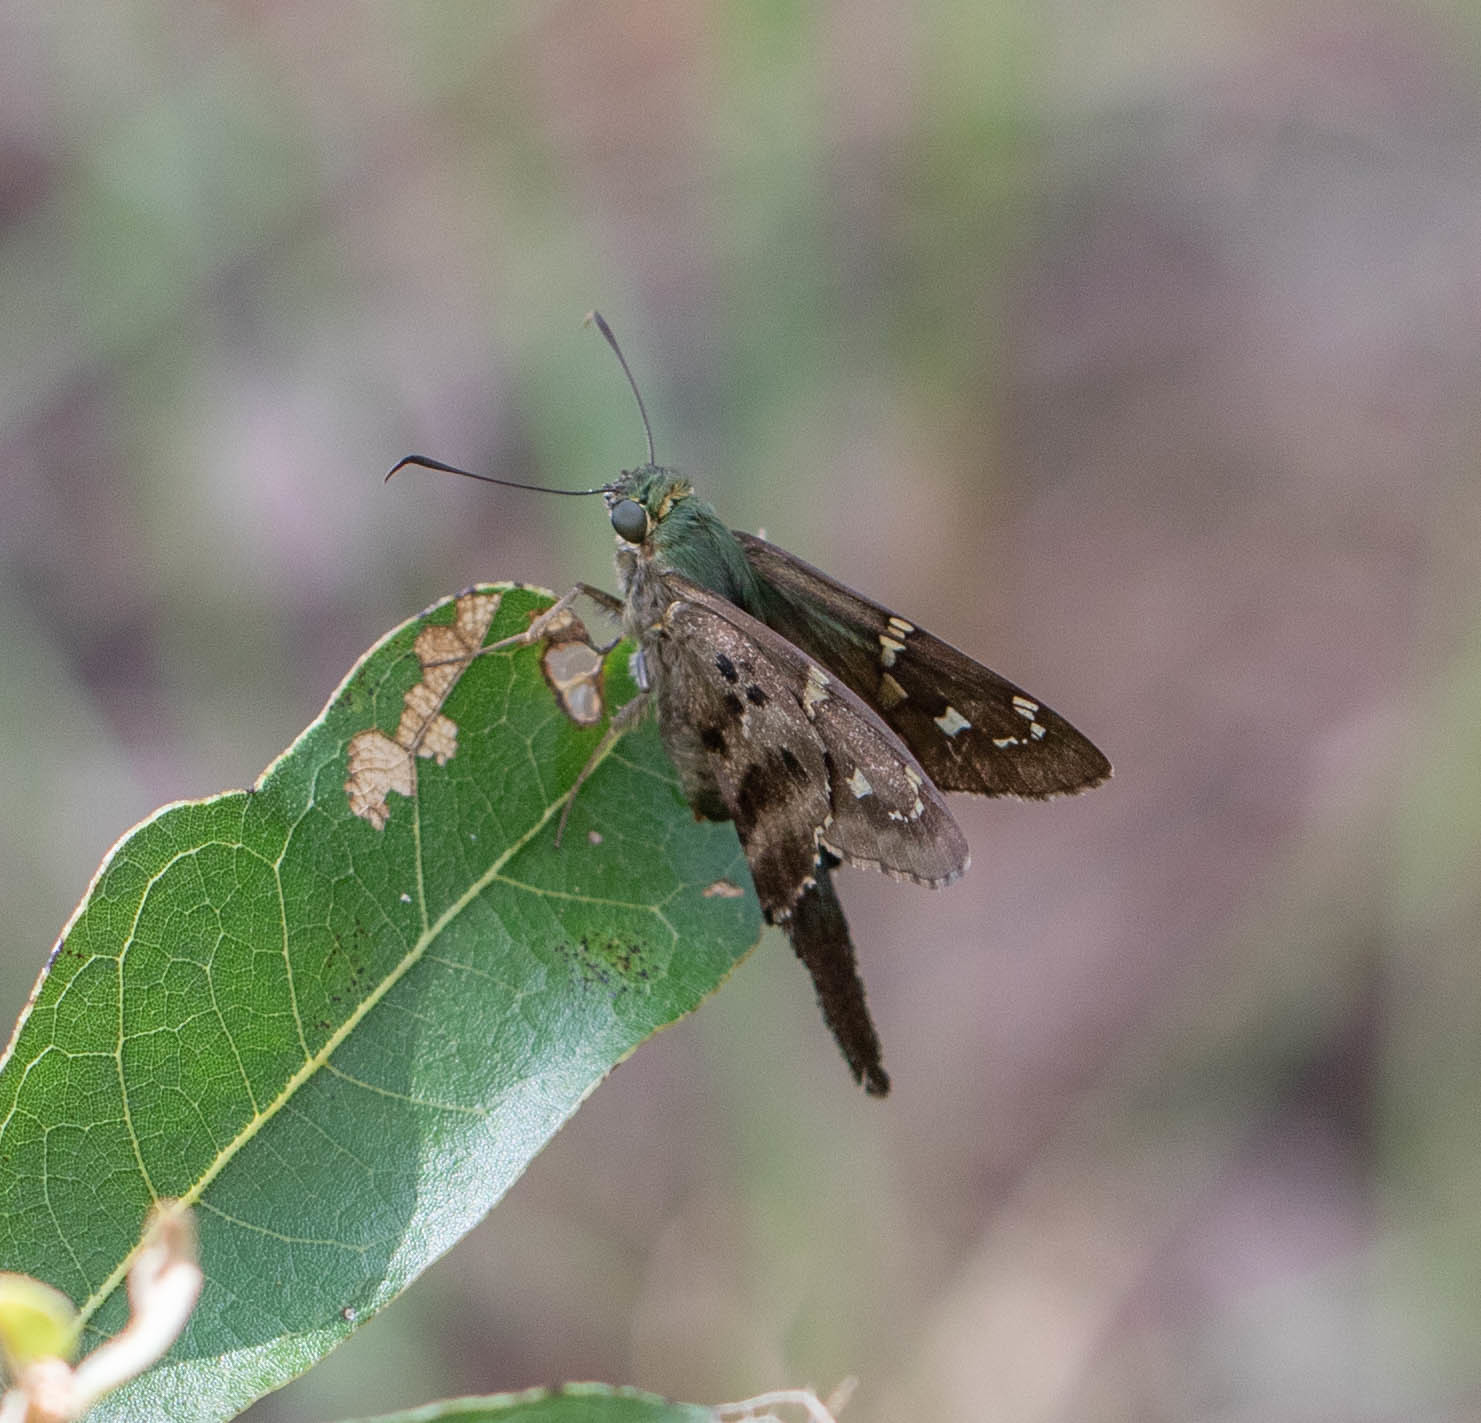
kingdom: Animalia
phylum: Arthropoda
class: Insecta
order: Lepidoptera
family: Hesperiidae
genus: Urbanus
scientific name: Urbanus proteus
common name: Long-tailed skipper
